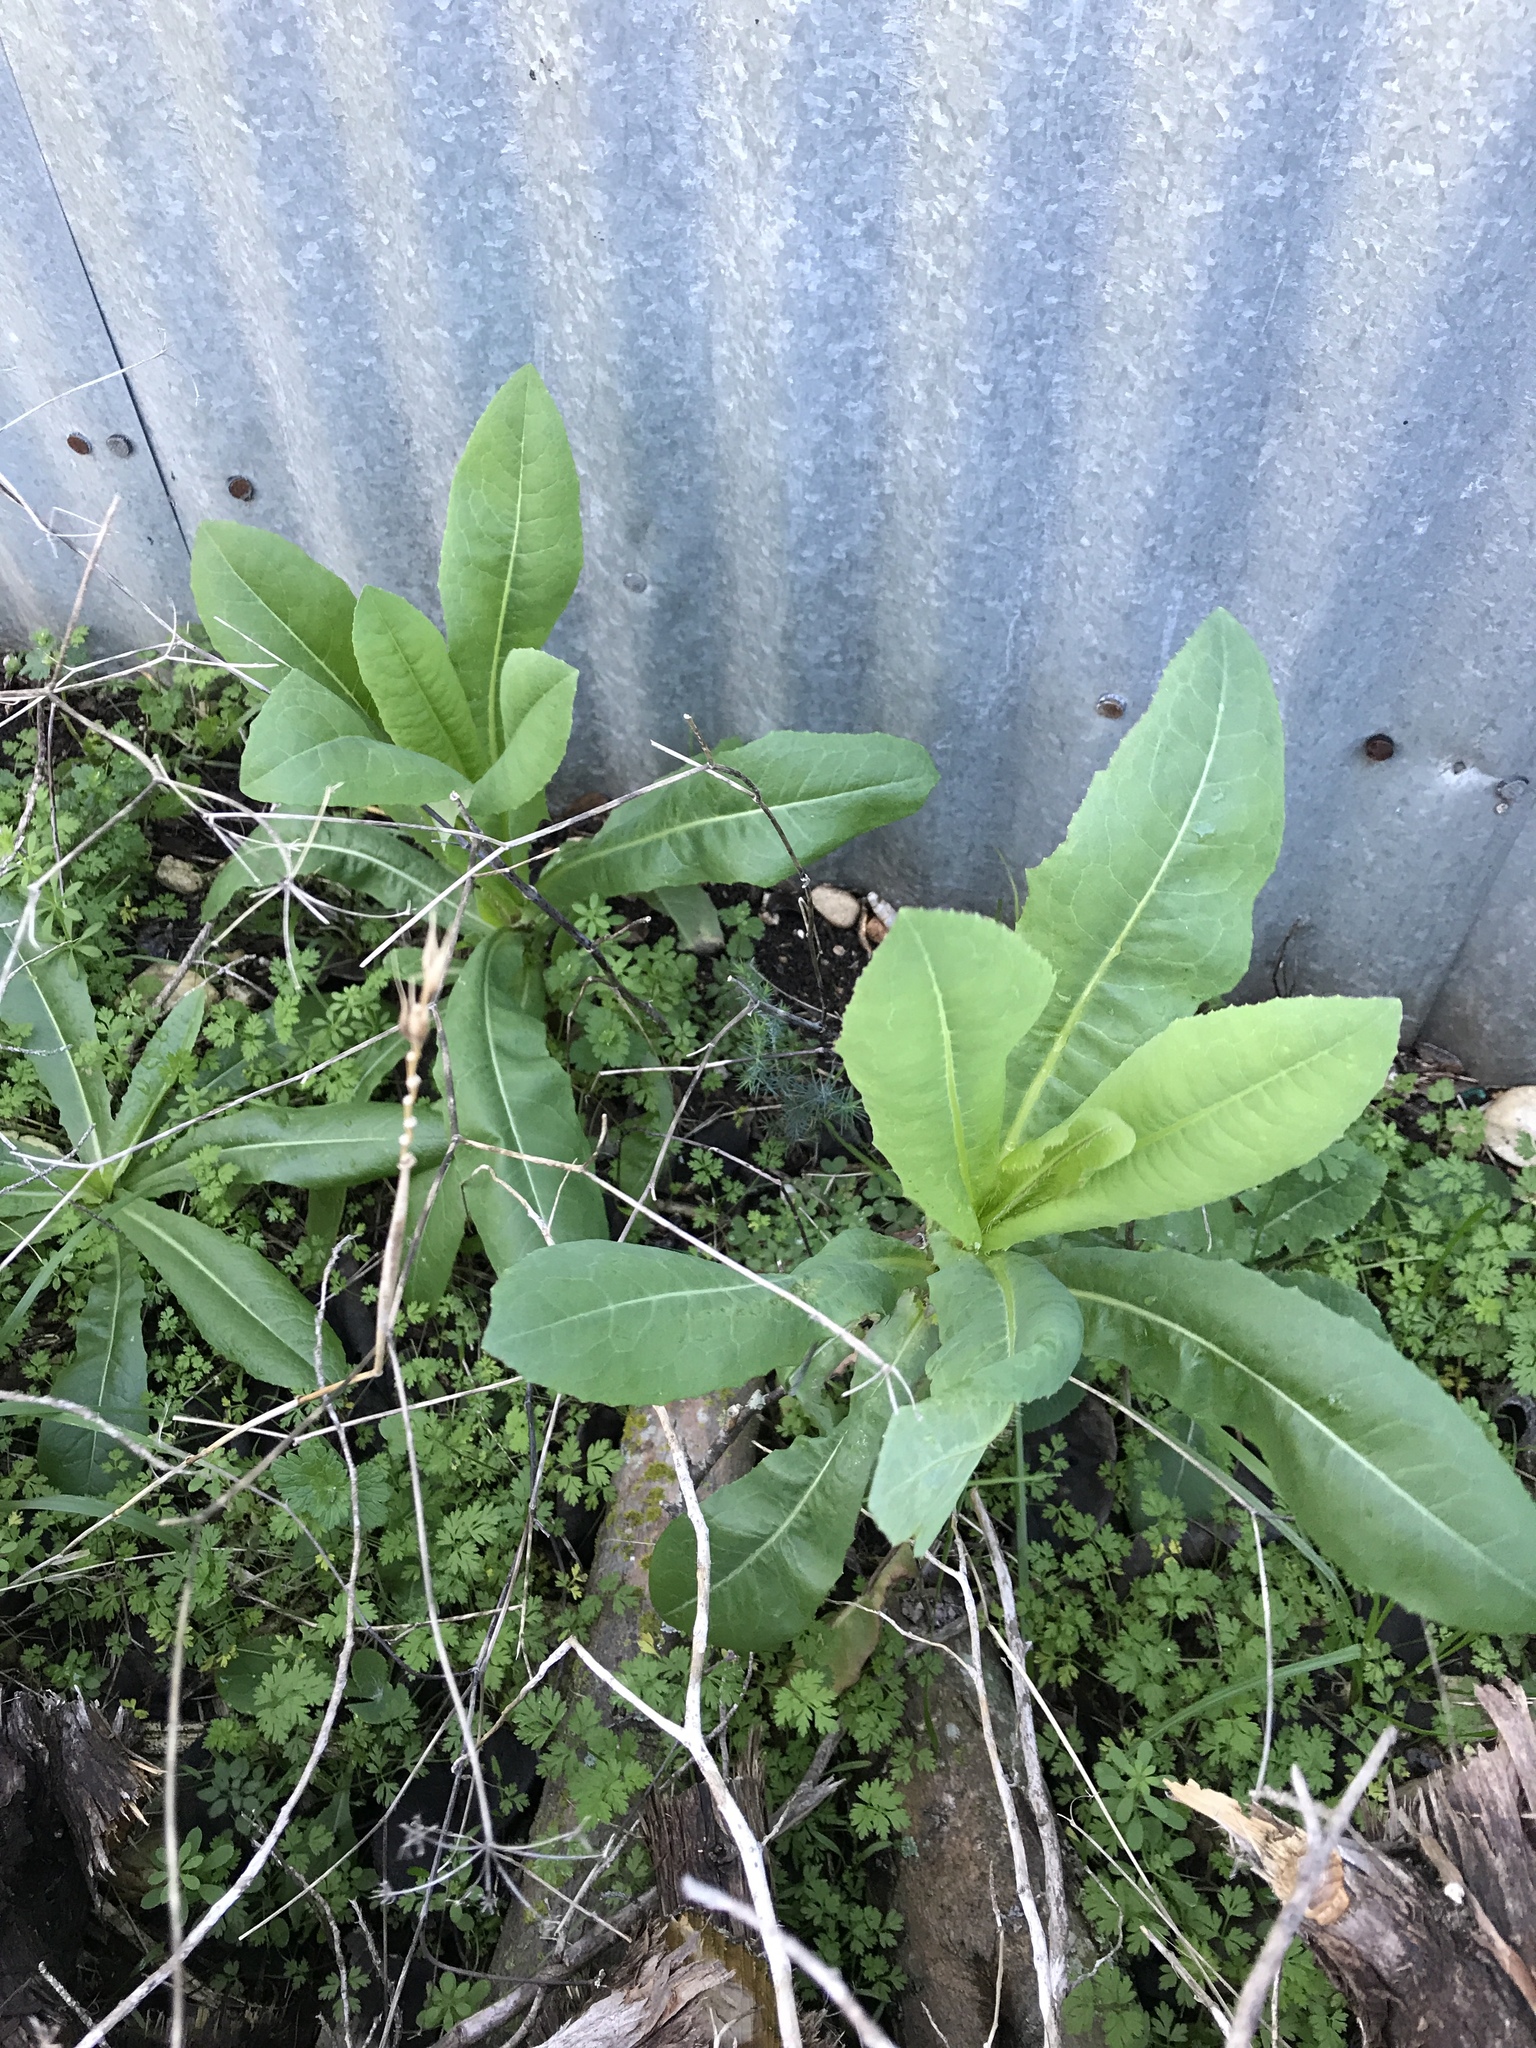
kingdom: Plantae
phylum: Tracheophyta
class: Magnoliopsida
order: Asterales
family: Asteraceae
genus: Lactuca
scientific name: Lactuca serriola
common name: Prickly lettuce
